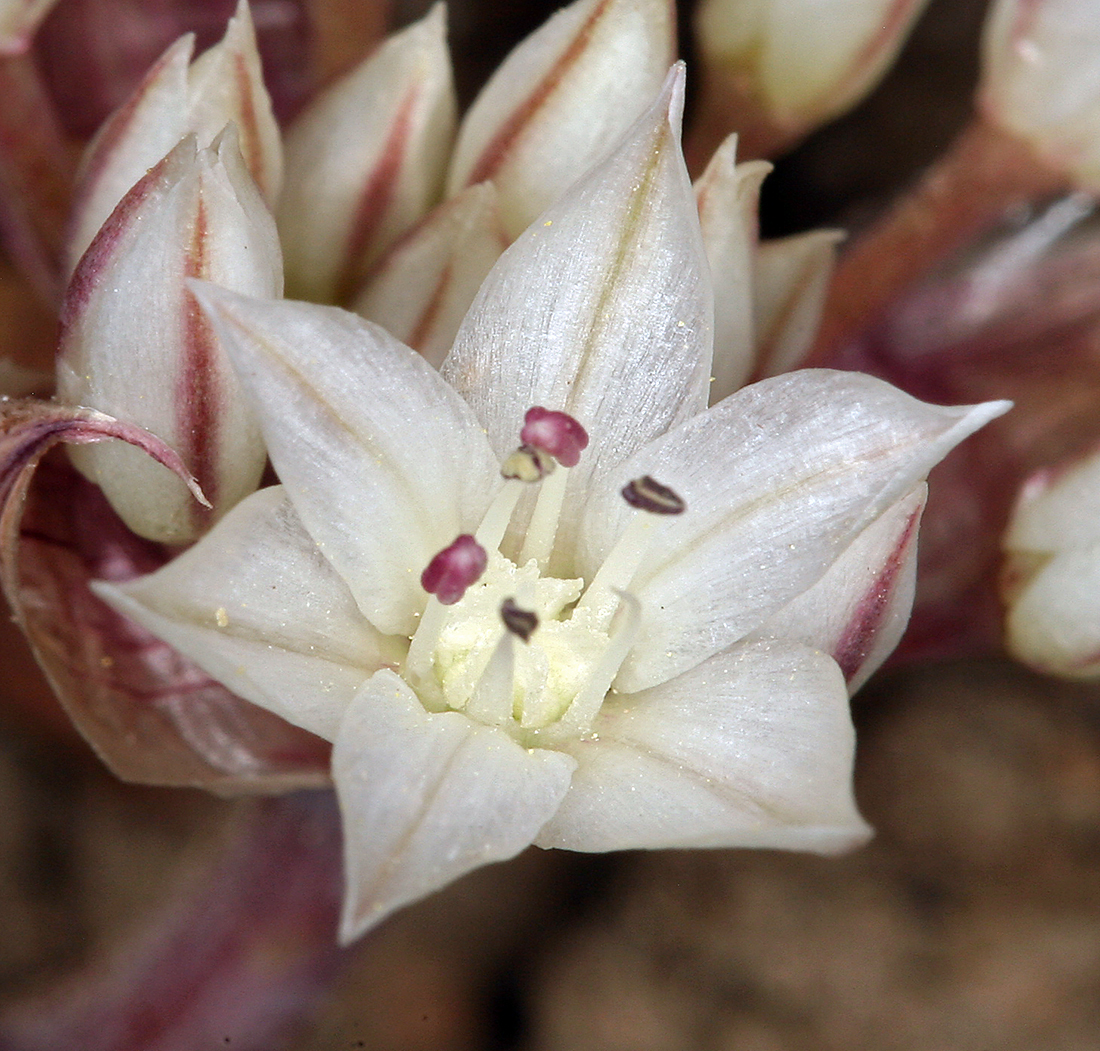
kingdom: Plantae
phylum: Tracheophyta
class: Liliopsida
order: Asparagales
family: Amaryllidaceae
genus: Allium
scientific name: Allium atrorubens
